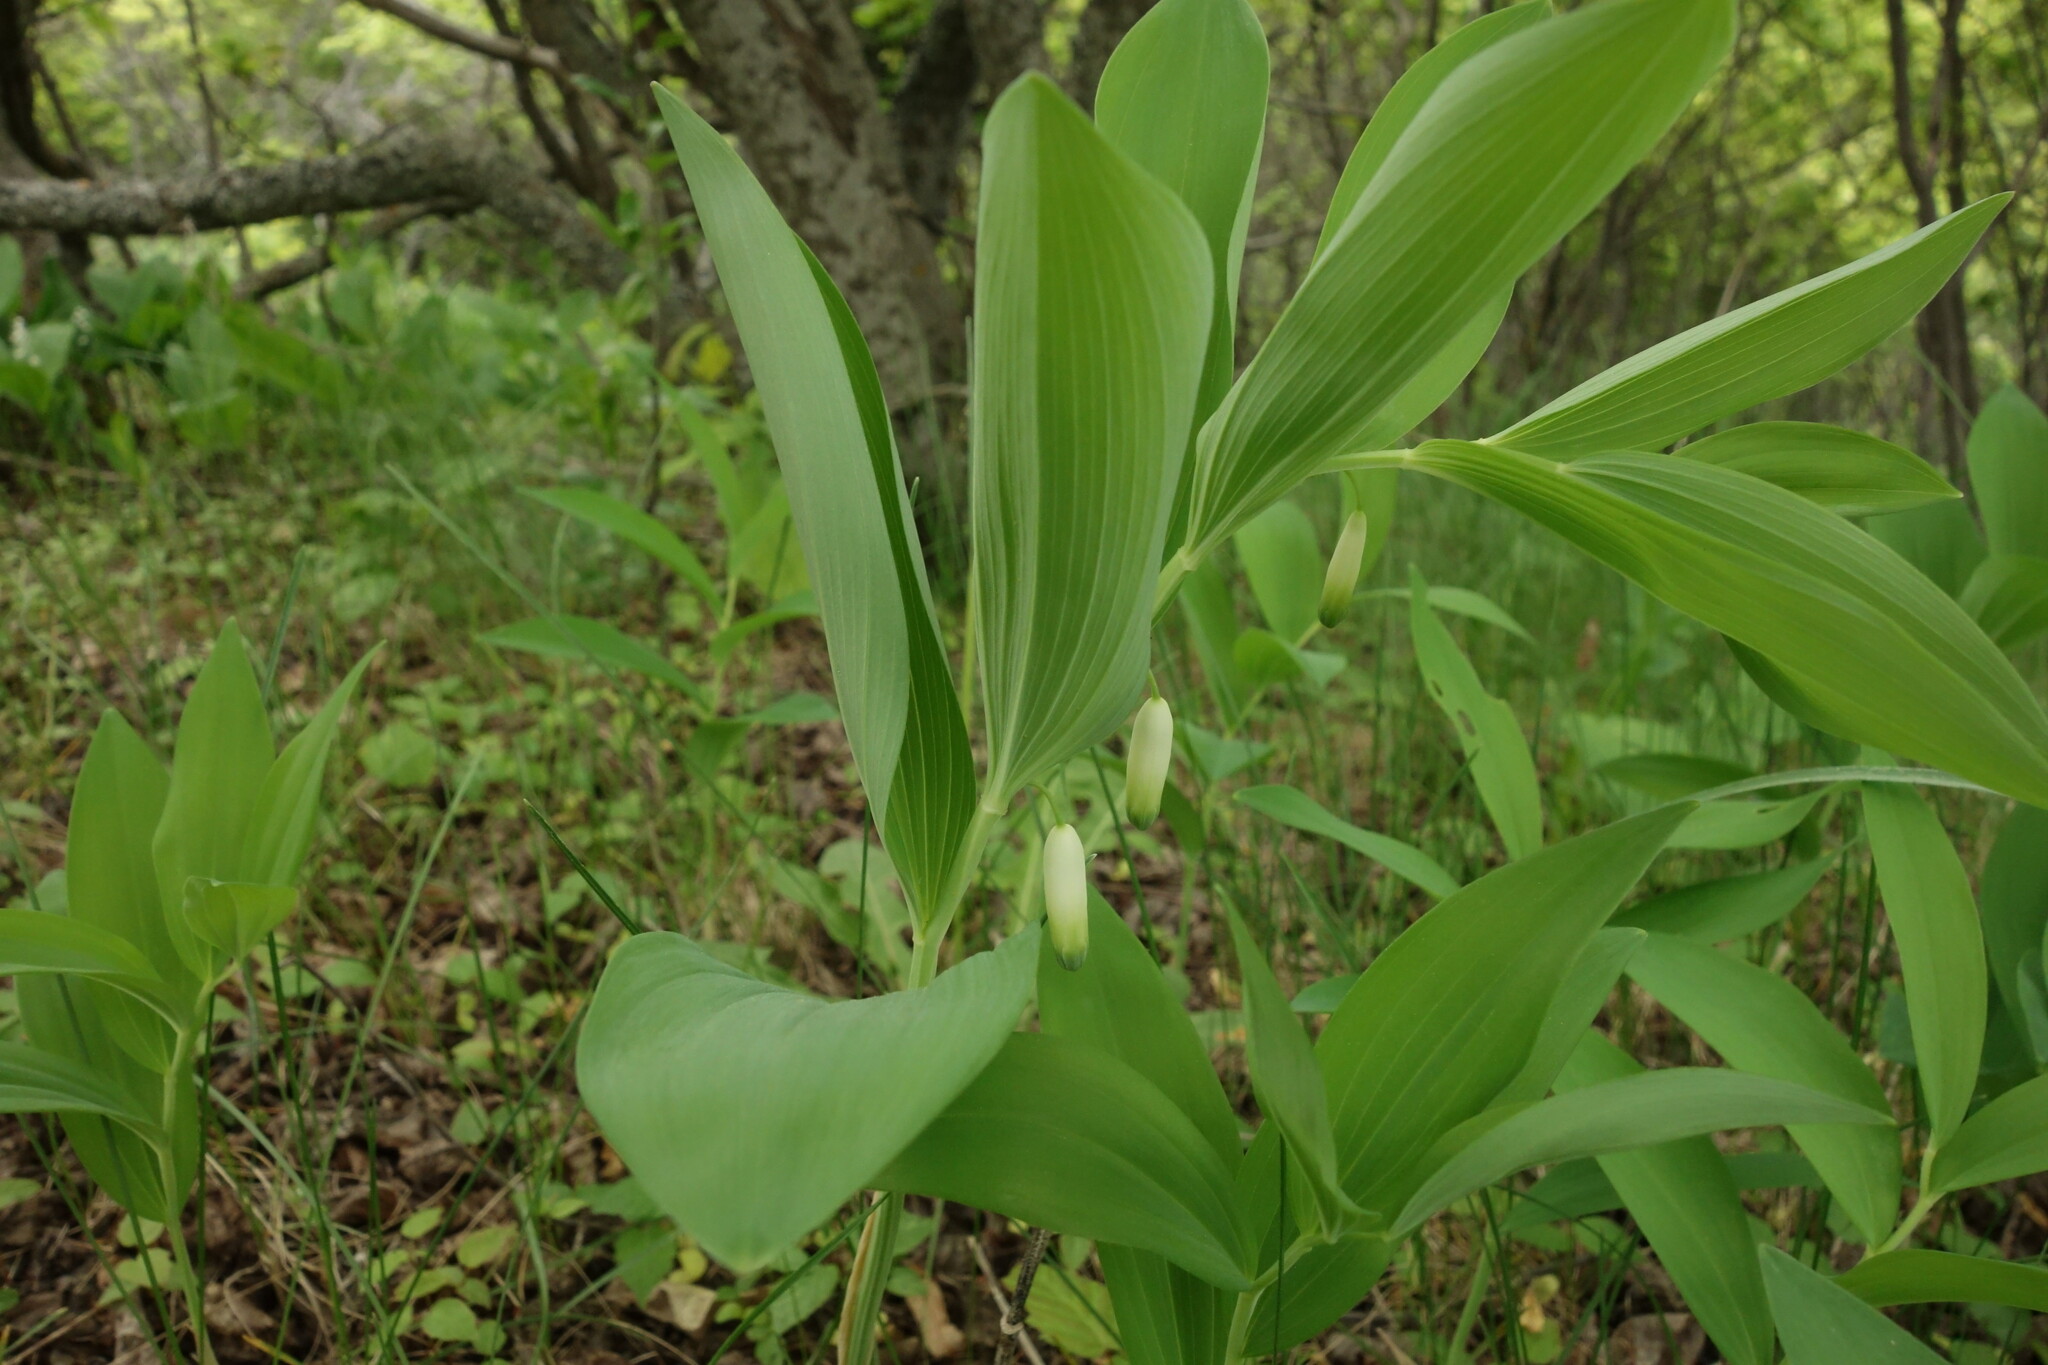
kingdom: Plantae
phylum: Tracheophyta
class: Liliopsida
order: Asparagales
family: Asparagaceae
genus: Polygonatum
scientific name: Polygonatum odoratum
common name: Angular solomon's-seal
